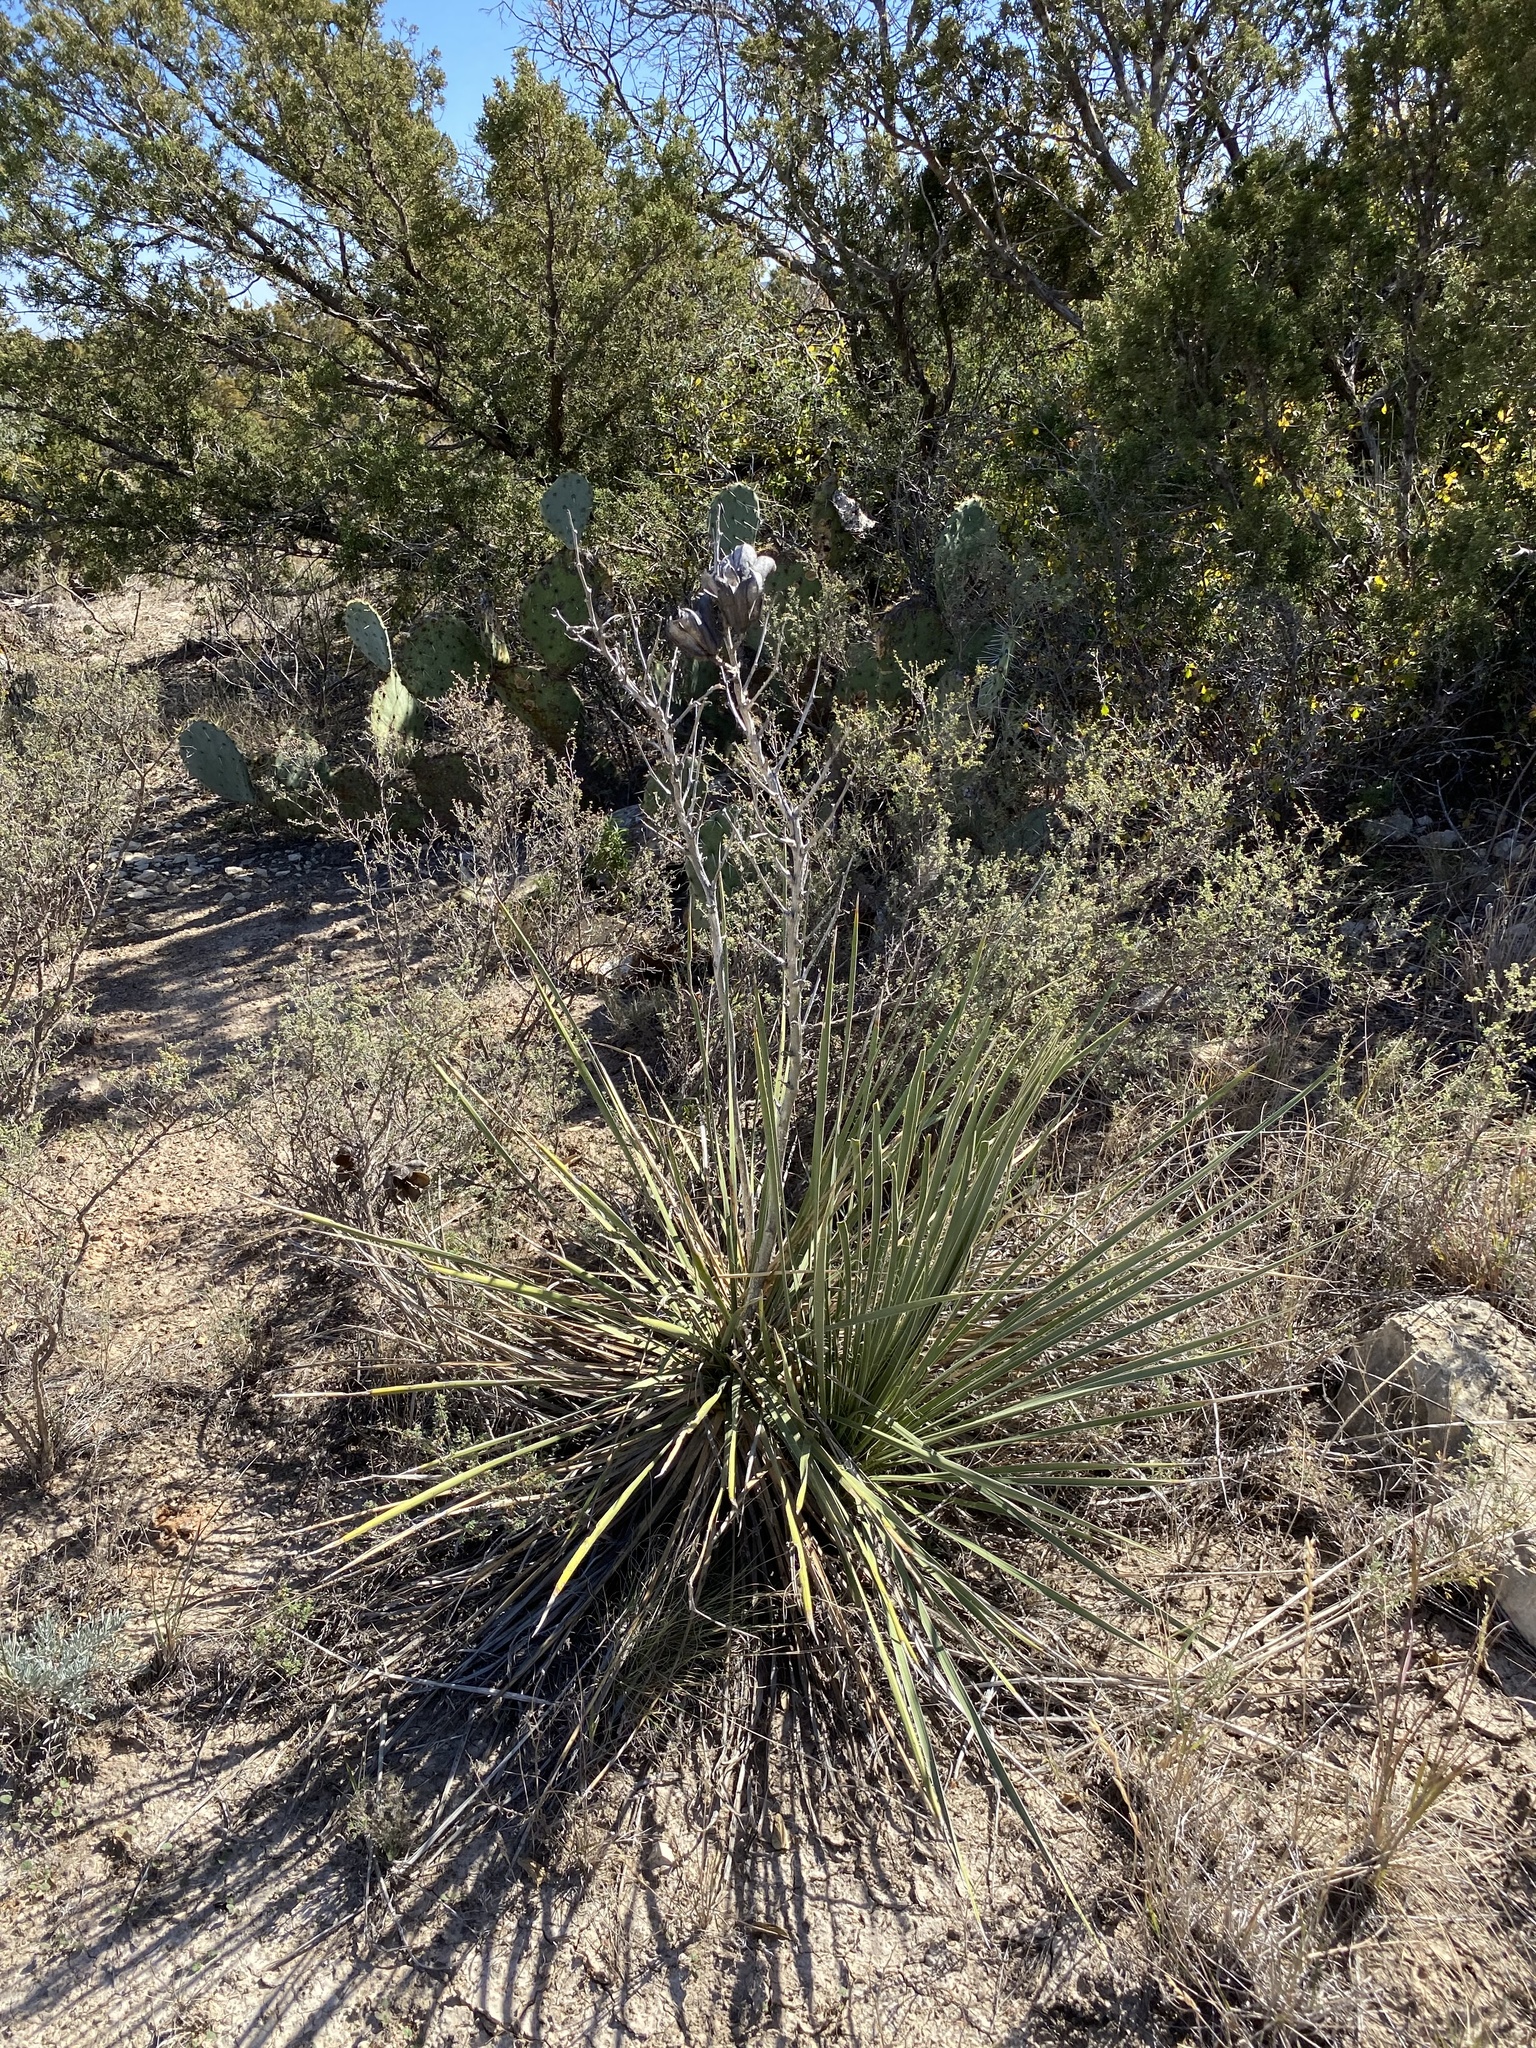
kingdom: Plantae
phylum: Tracheophyta
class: Liliopsida
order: Asparagales
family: Asparagaceae
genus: Yucca
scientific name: Yucca campestris
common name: Plains yucca
